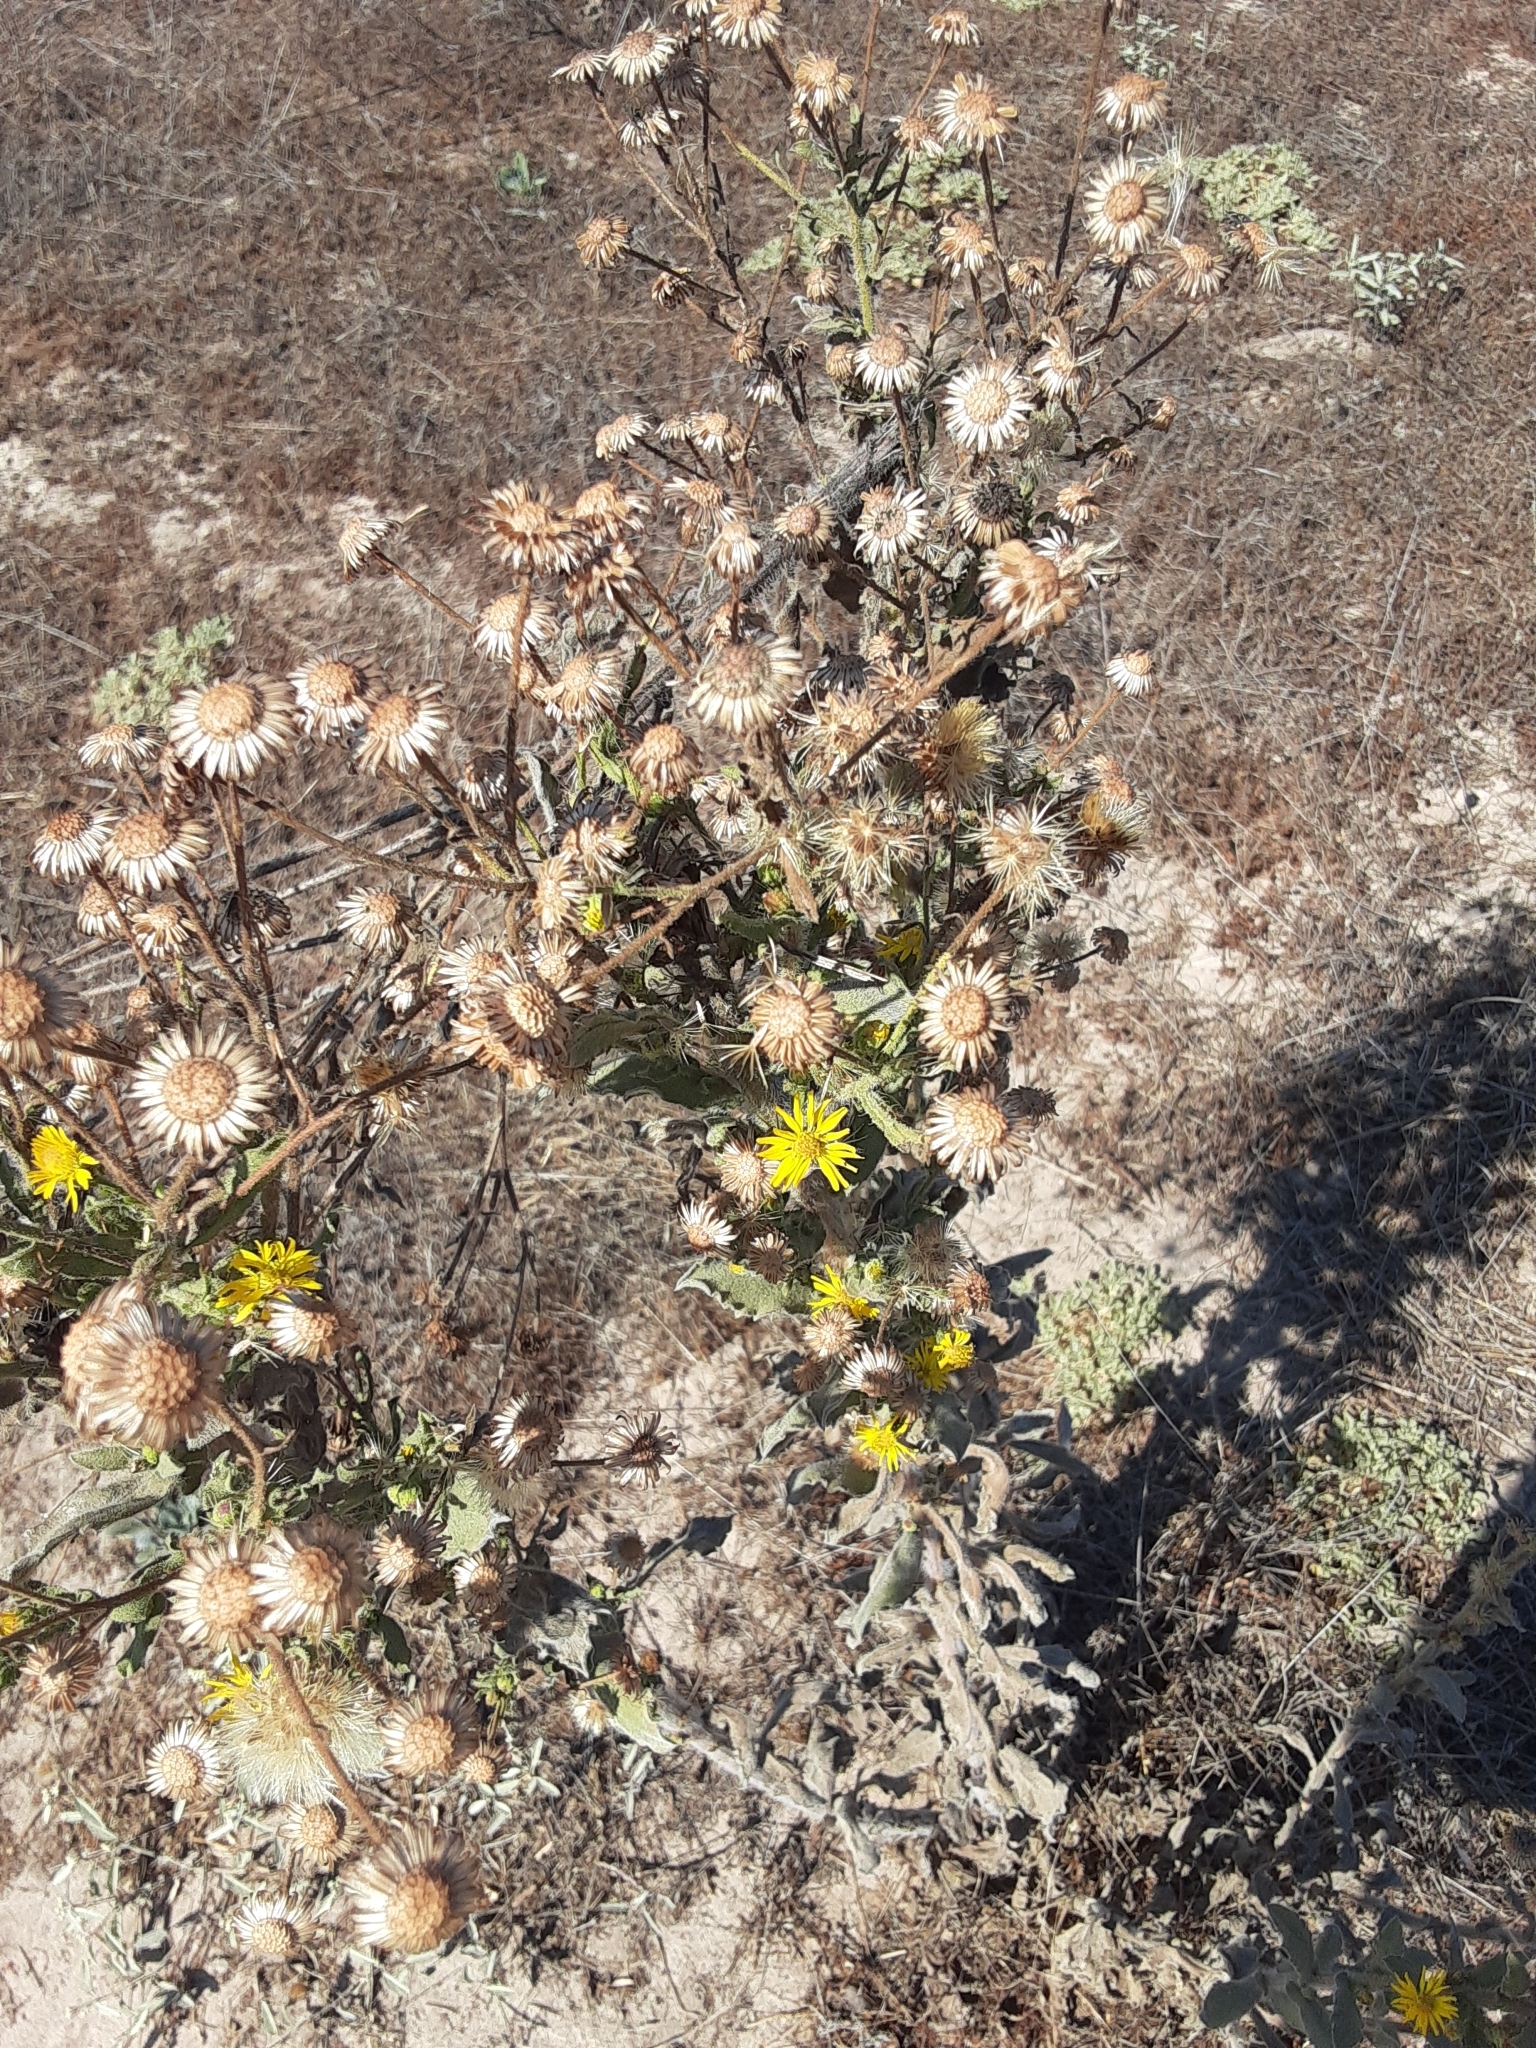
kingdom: Plantae
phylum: Tracheophyta
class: Magnoliopsida
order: Asterales
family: Asteraceae
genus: Heterotheca
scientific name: Heterotheca grandiflora
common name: Telegraphweed
